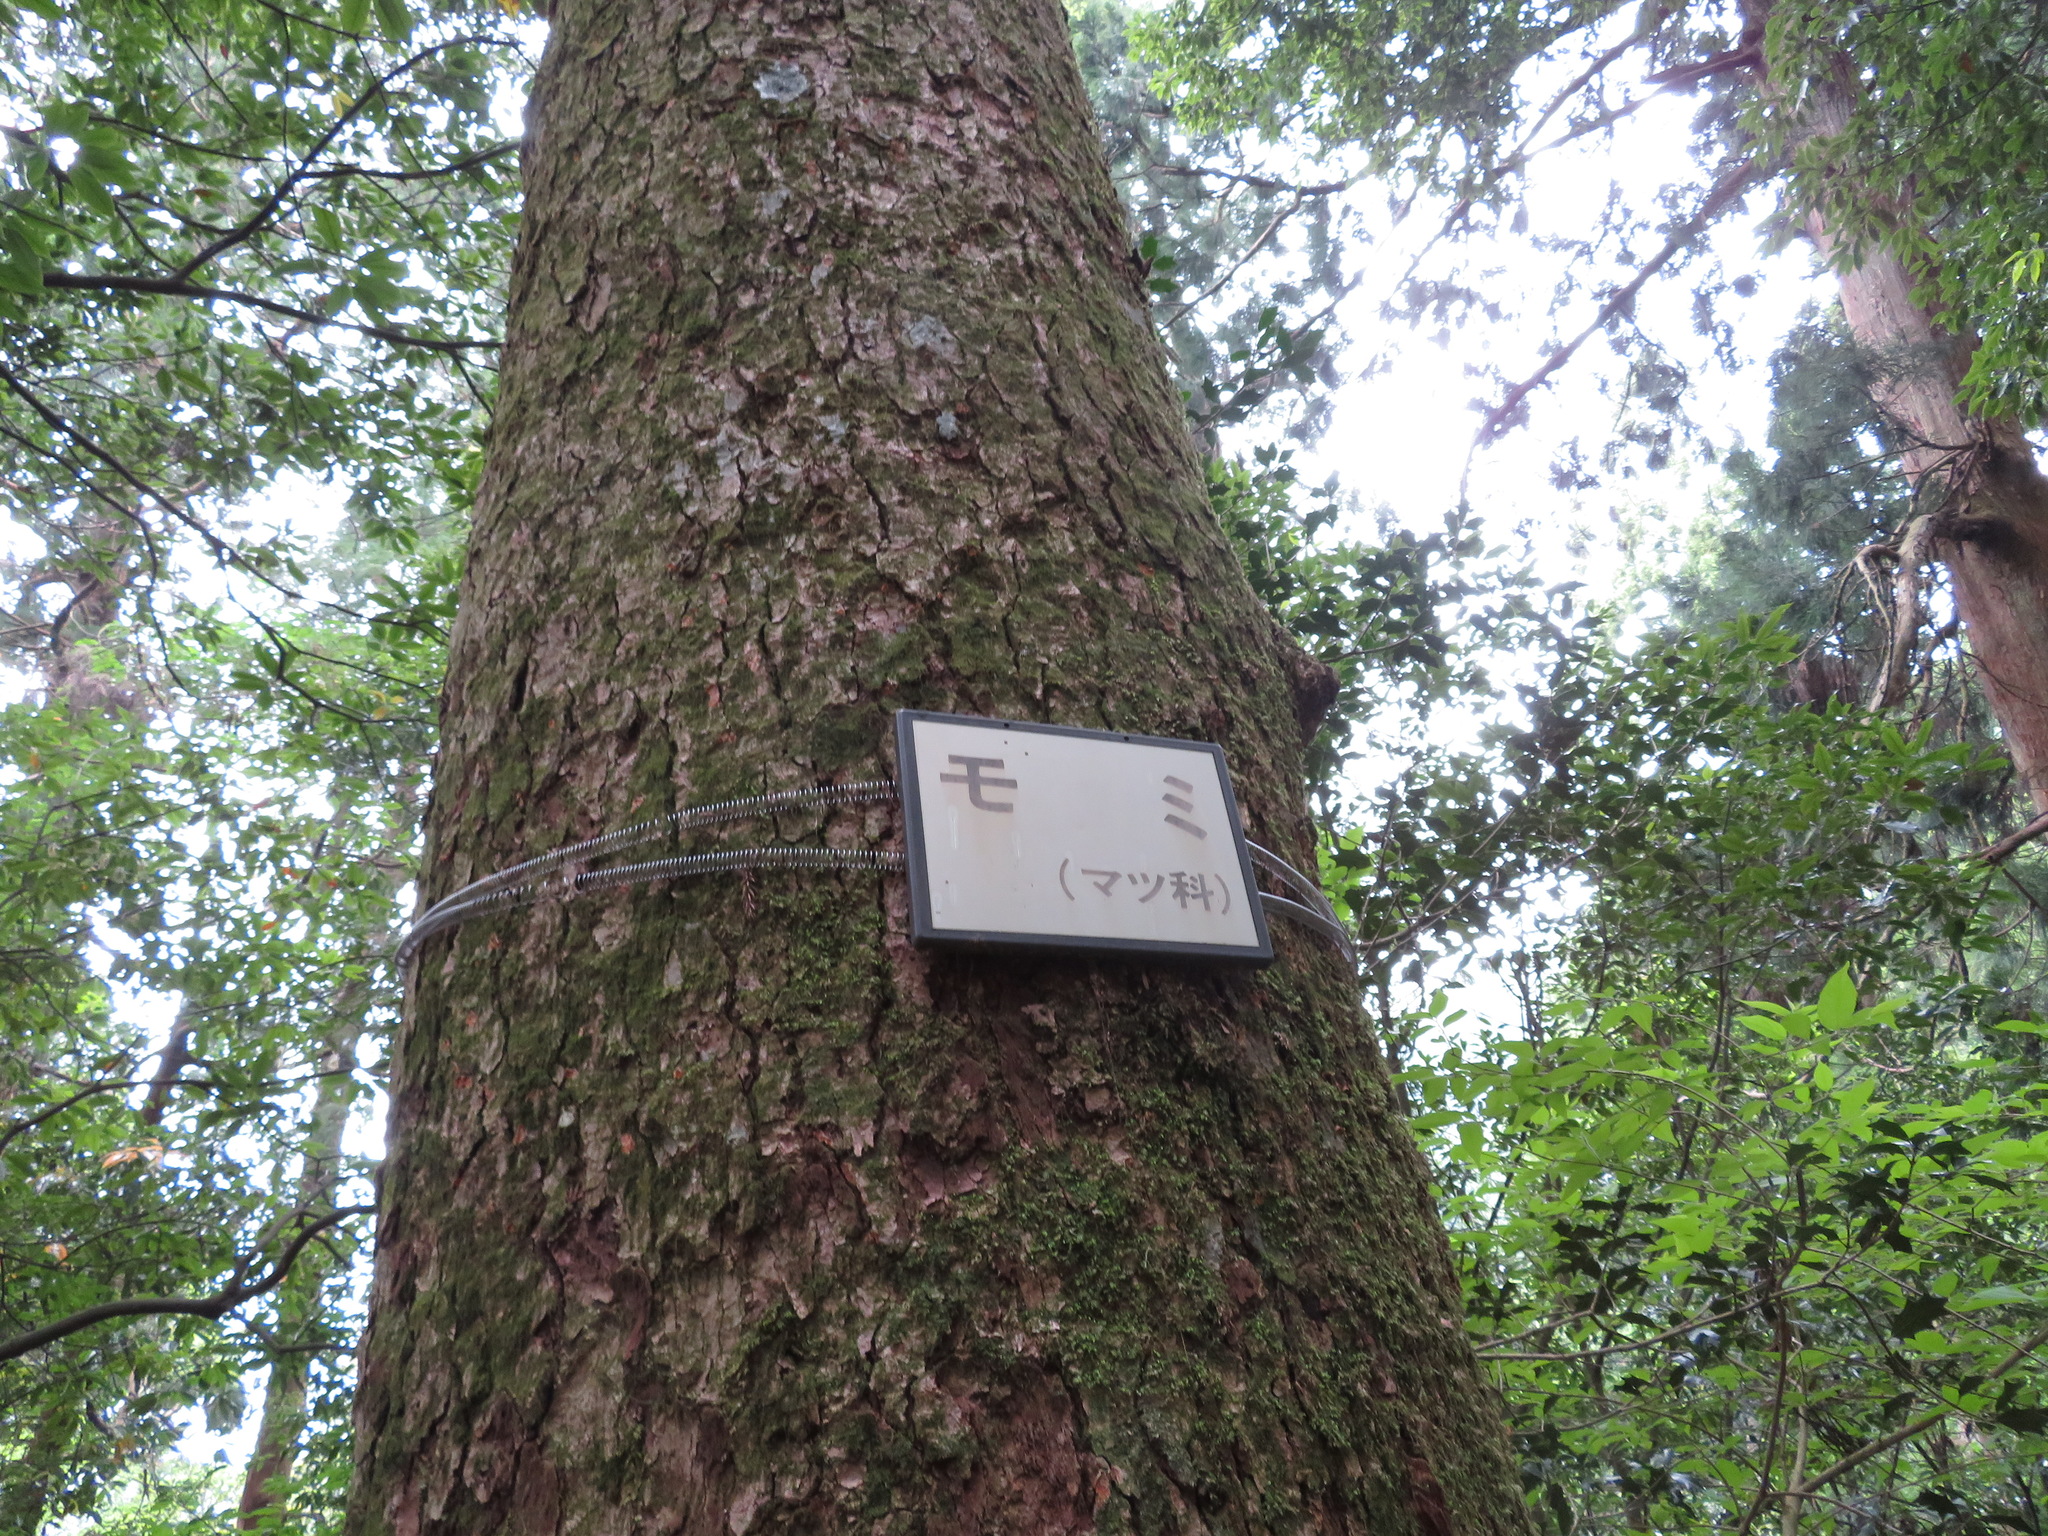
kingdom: Plantae
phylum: Tracheophyta
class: Pinopsida
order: Pinales
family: Pinaceae
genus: Abies
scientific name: Abies firma
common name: Momi fir
